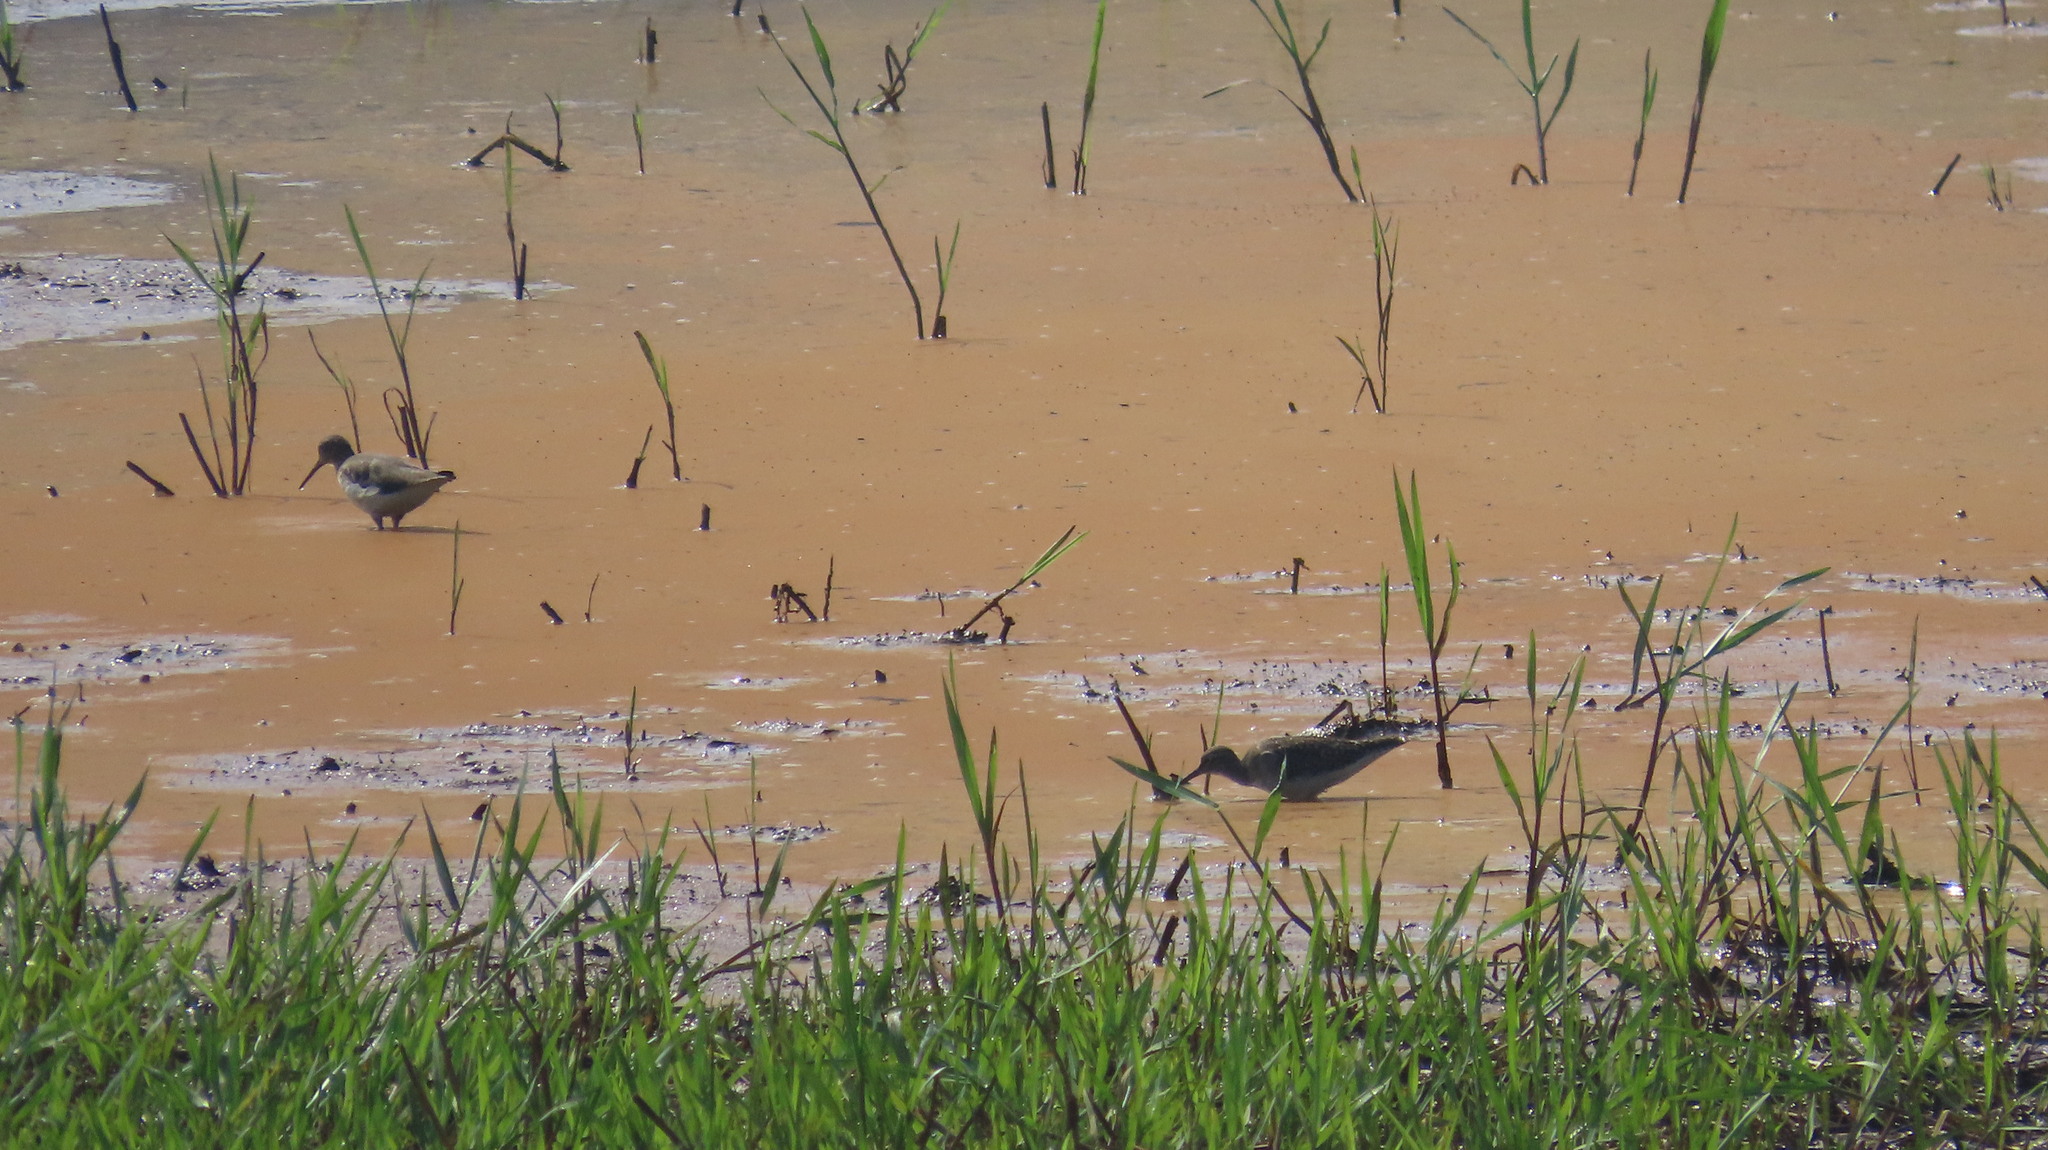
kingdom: Animalia
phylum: Chordata
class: Aves
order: Charadriiformes
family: Scolopacidae
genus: Tringa
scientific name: Tringa glareola
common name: Wood sandpiper
